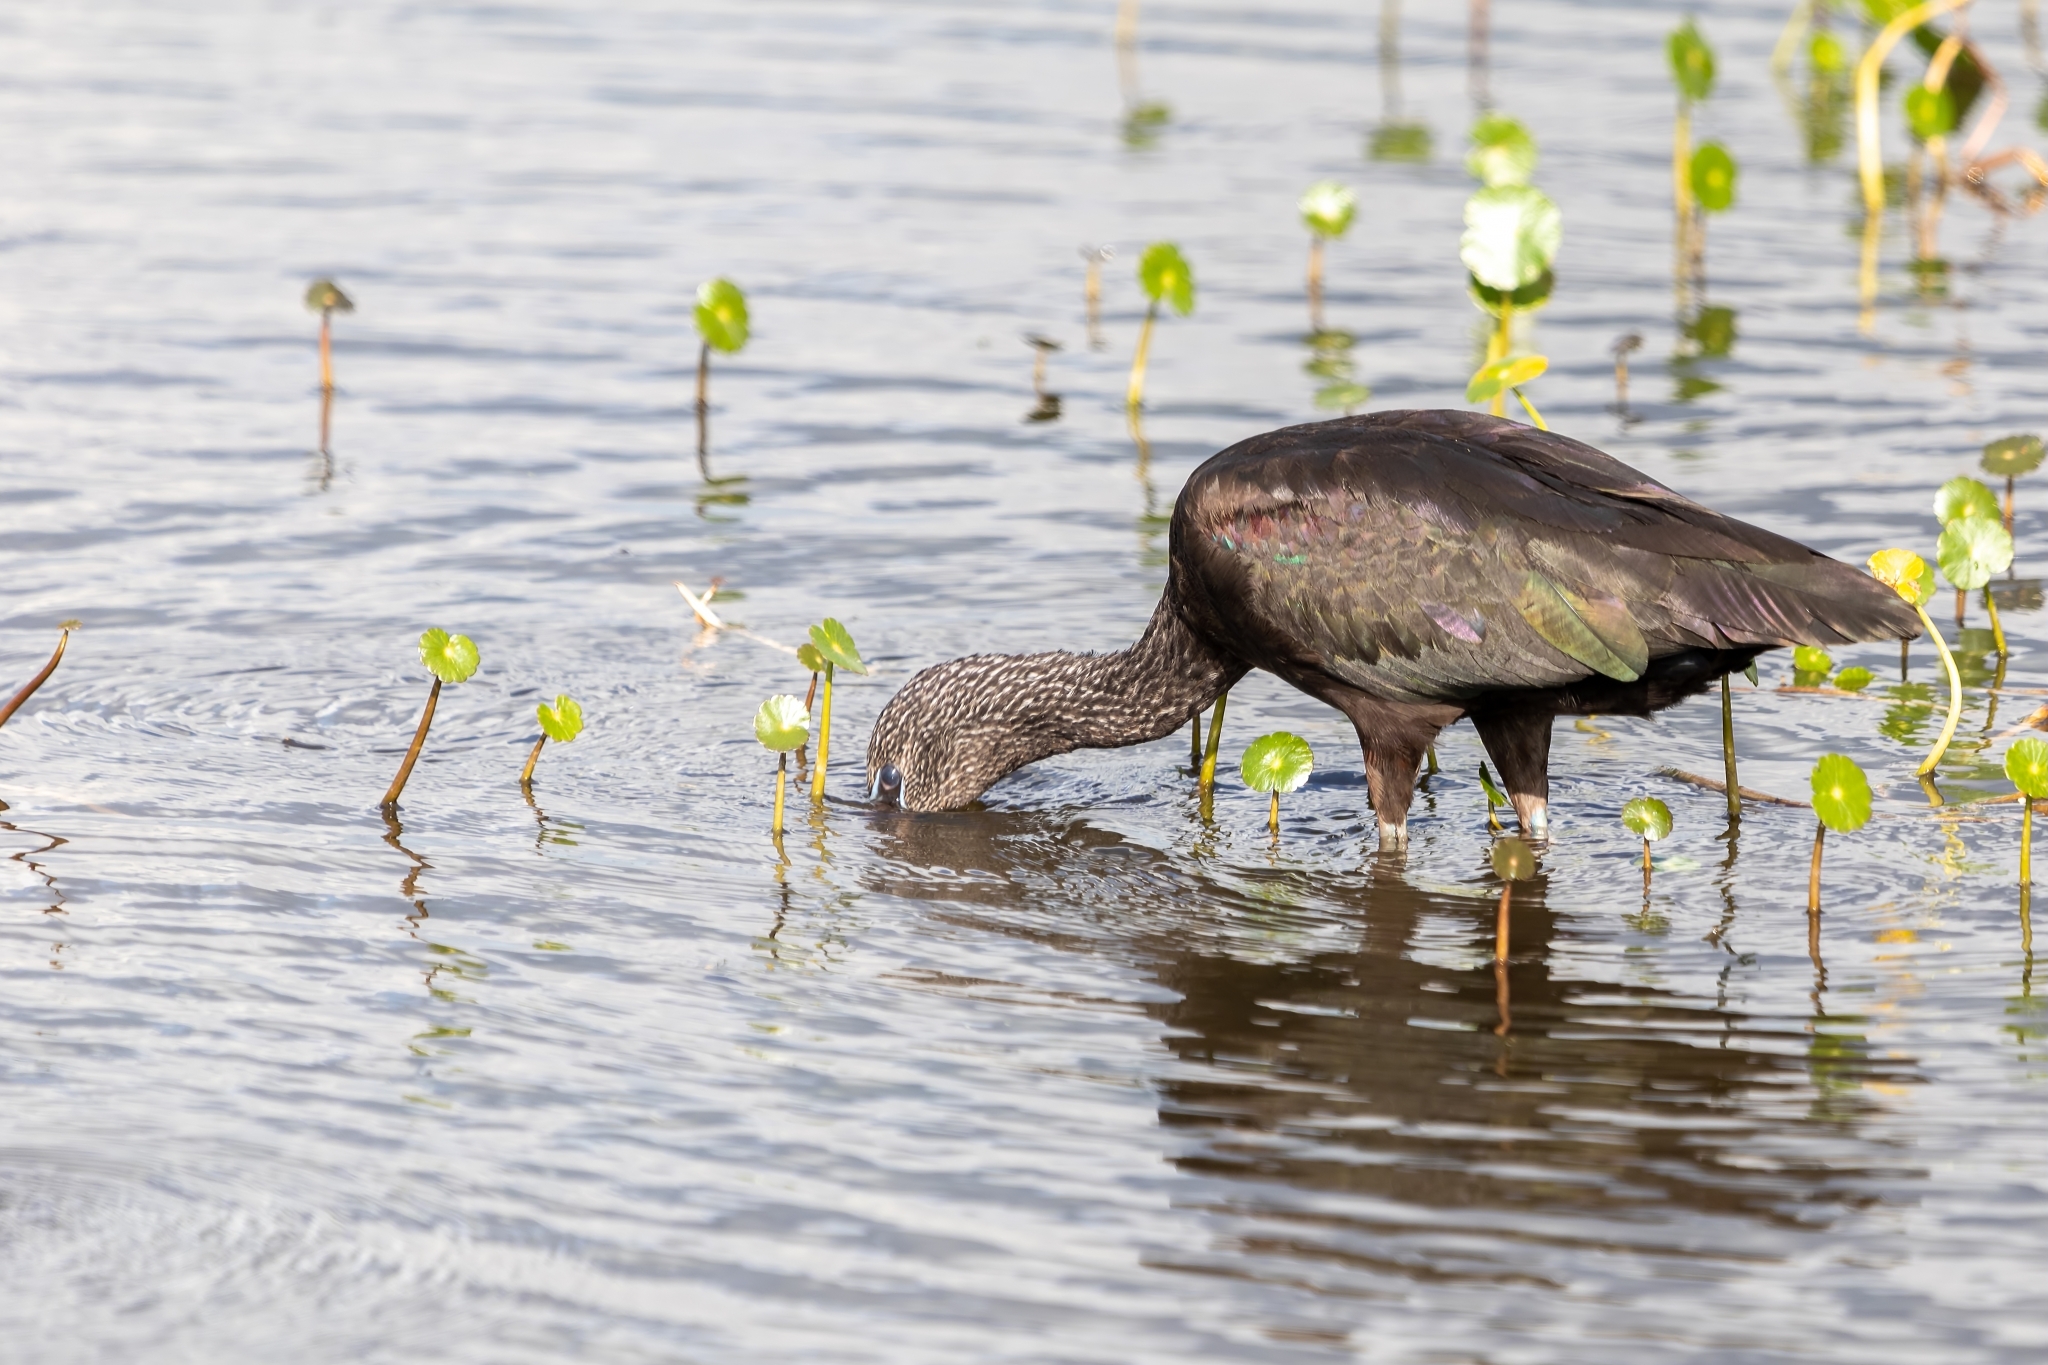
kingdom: Animalia
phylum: Chordata
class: Aves
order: Pelecaniformes
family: Threskiornithidae
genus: Plegadis
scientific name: Plegadis falcinellus
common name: Glossy ibis
